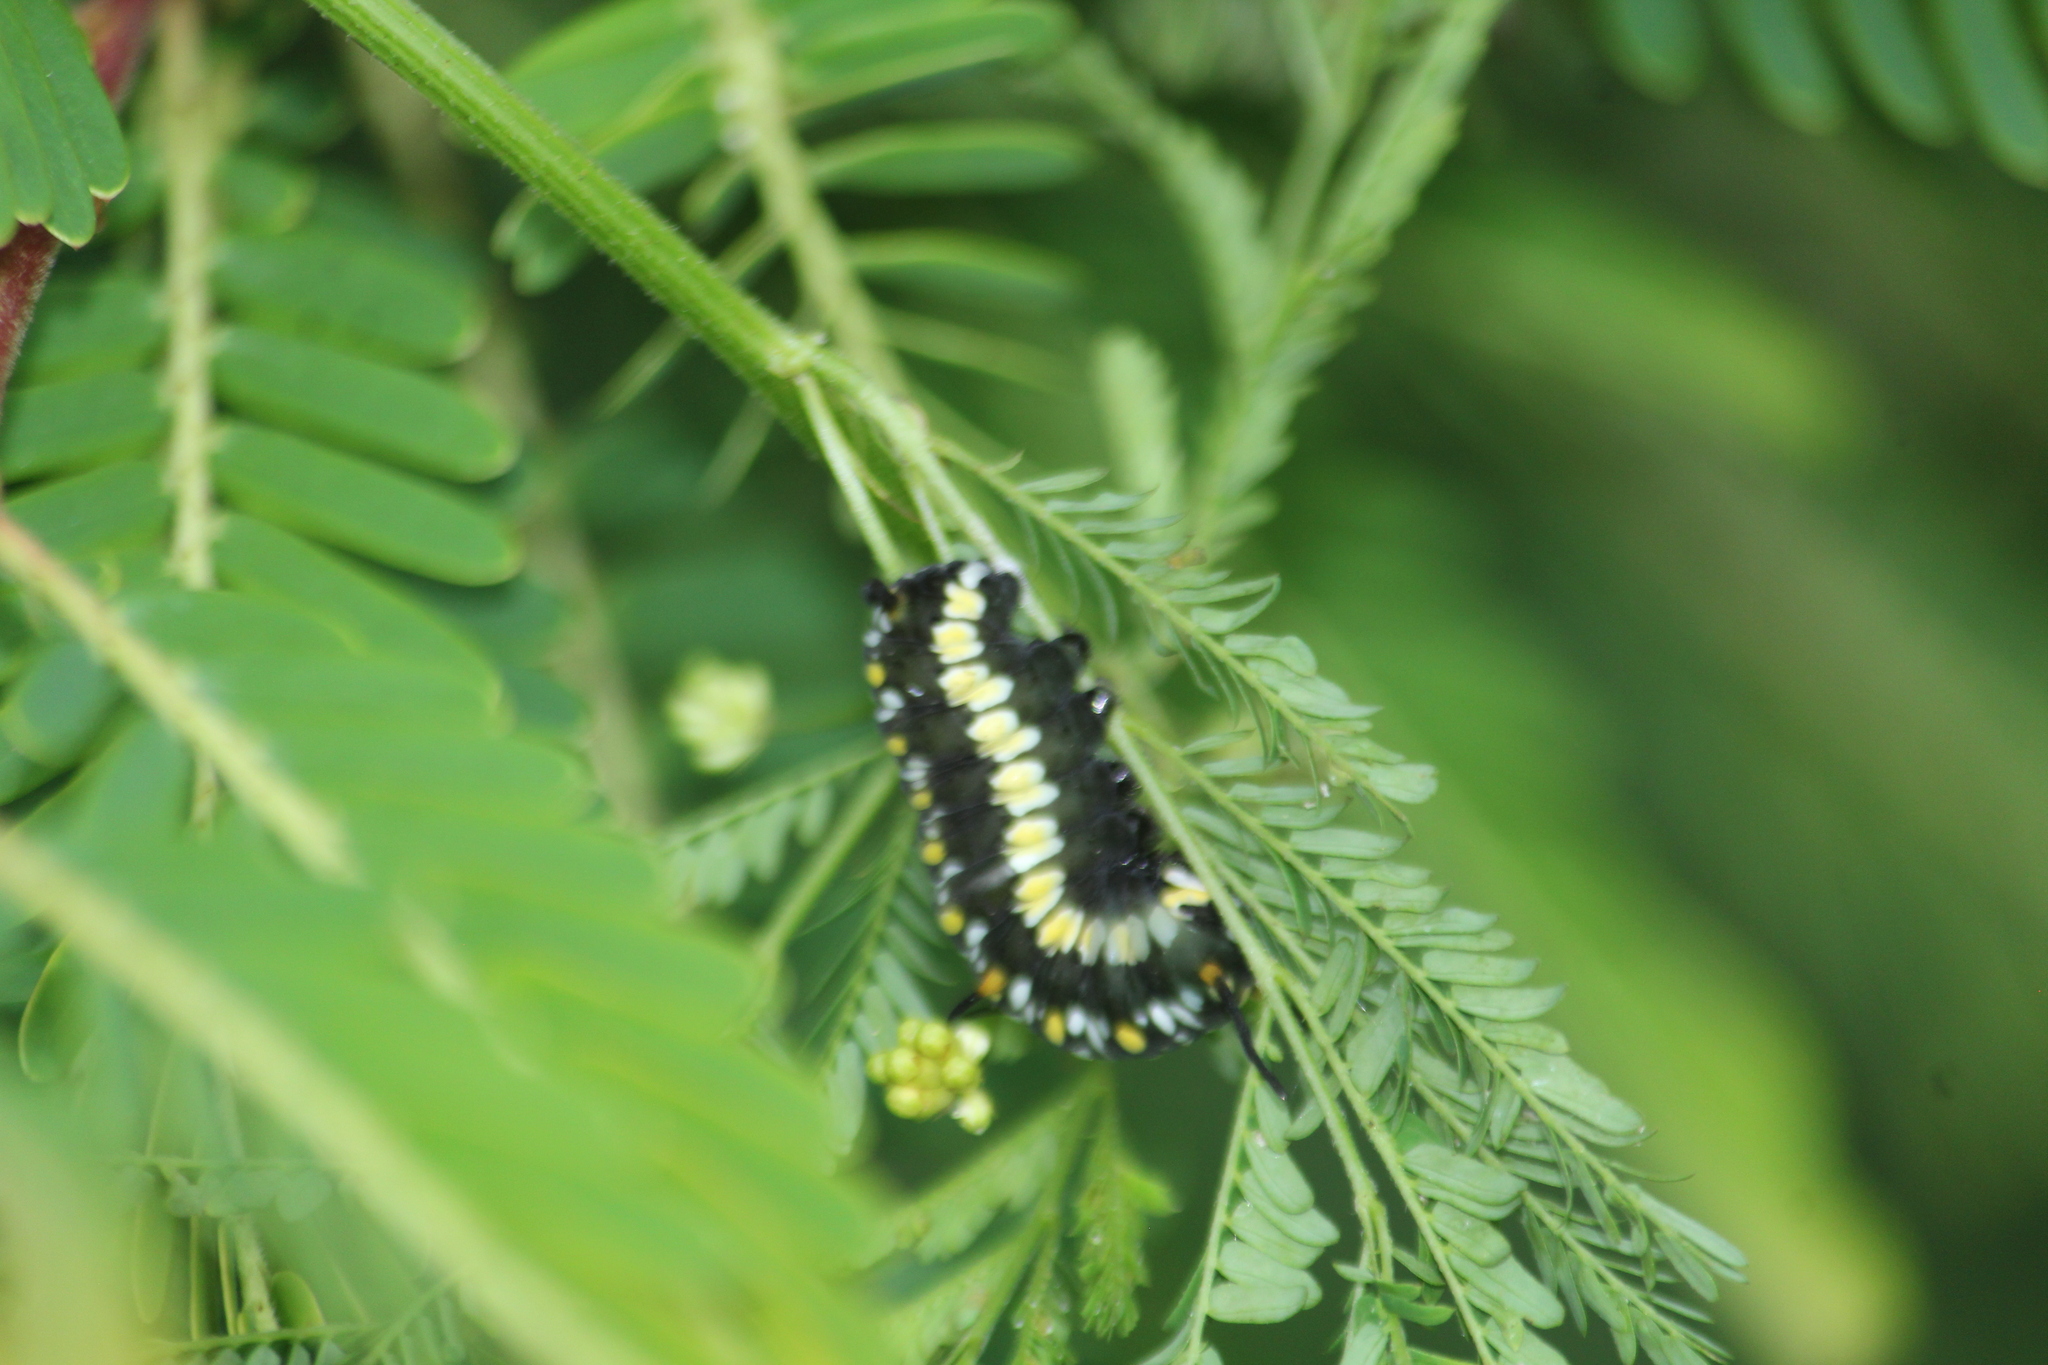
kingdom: Animalia
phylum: Arthropoda
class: Insecta
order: Lepidoptera
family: Nymphalidae
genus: Danaus
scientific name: Danaus genutia
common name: Common tiger butterfly
